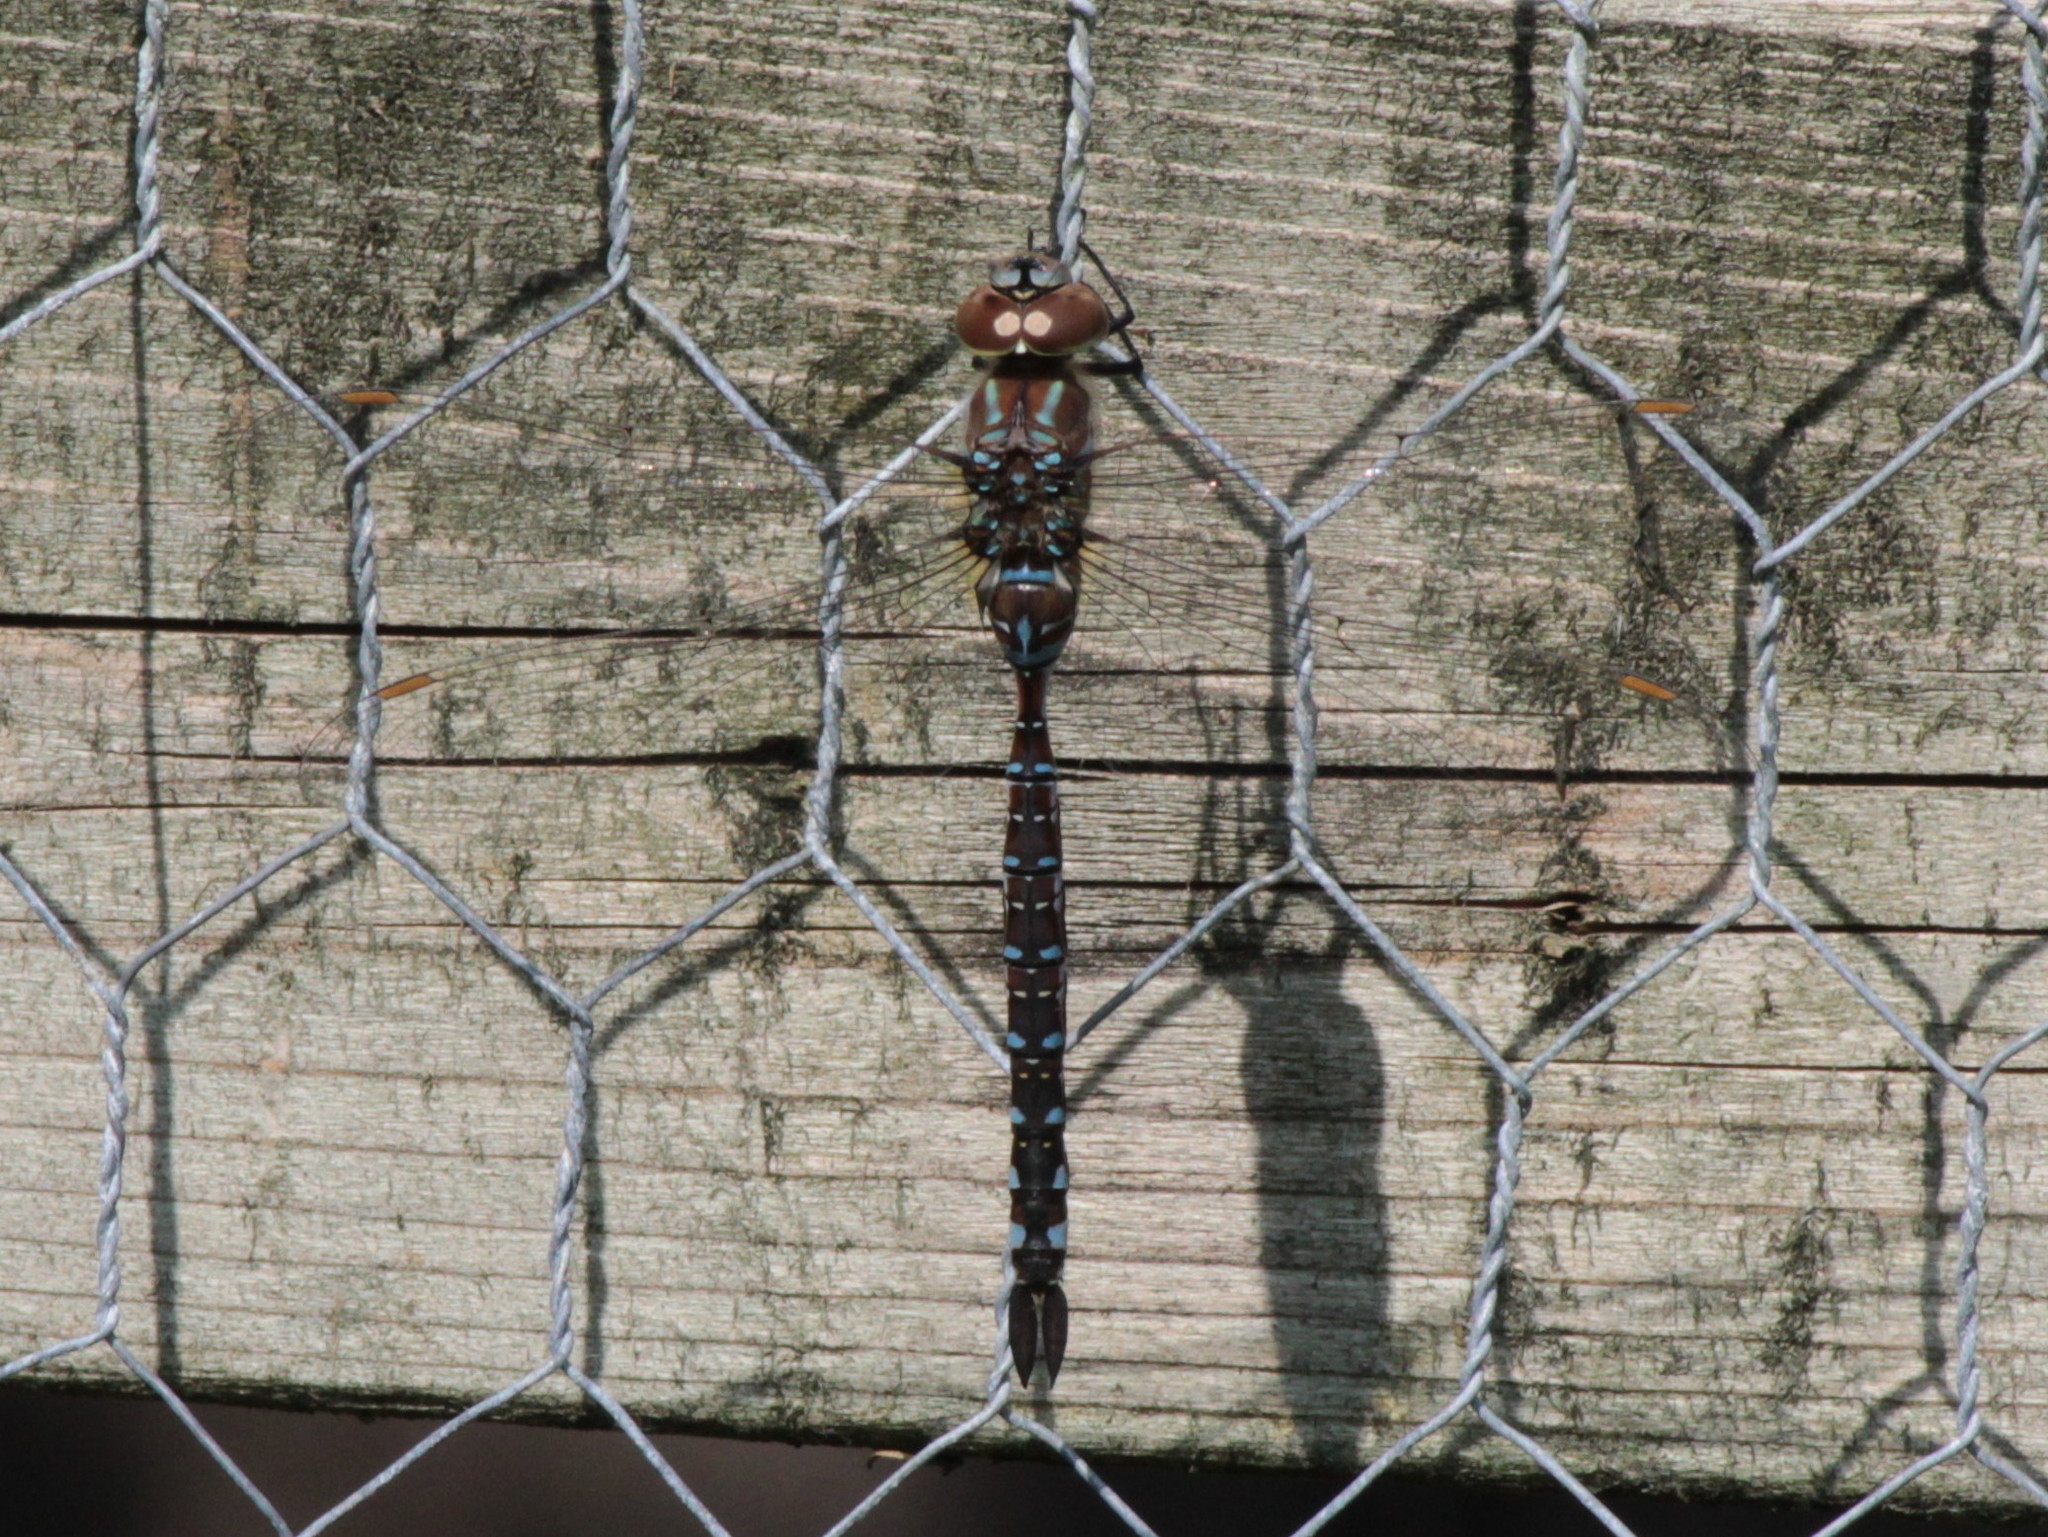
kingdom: Animalia
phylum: Arthropoda
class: Insecta
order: Odonata
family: Aeshnidae
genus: Aeshna
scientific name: Aeshna constricta
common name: Lance-tipped darner
